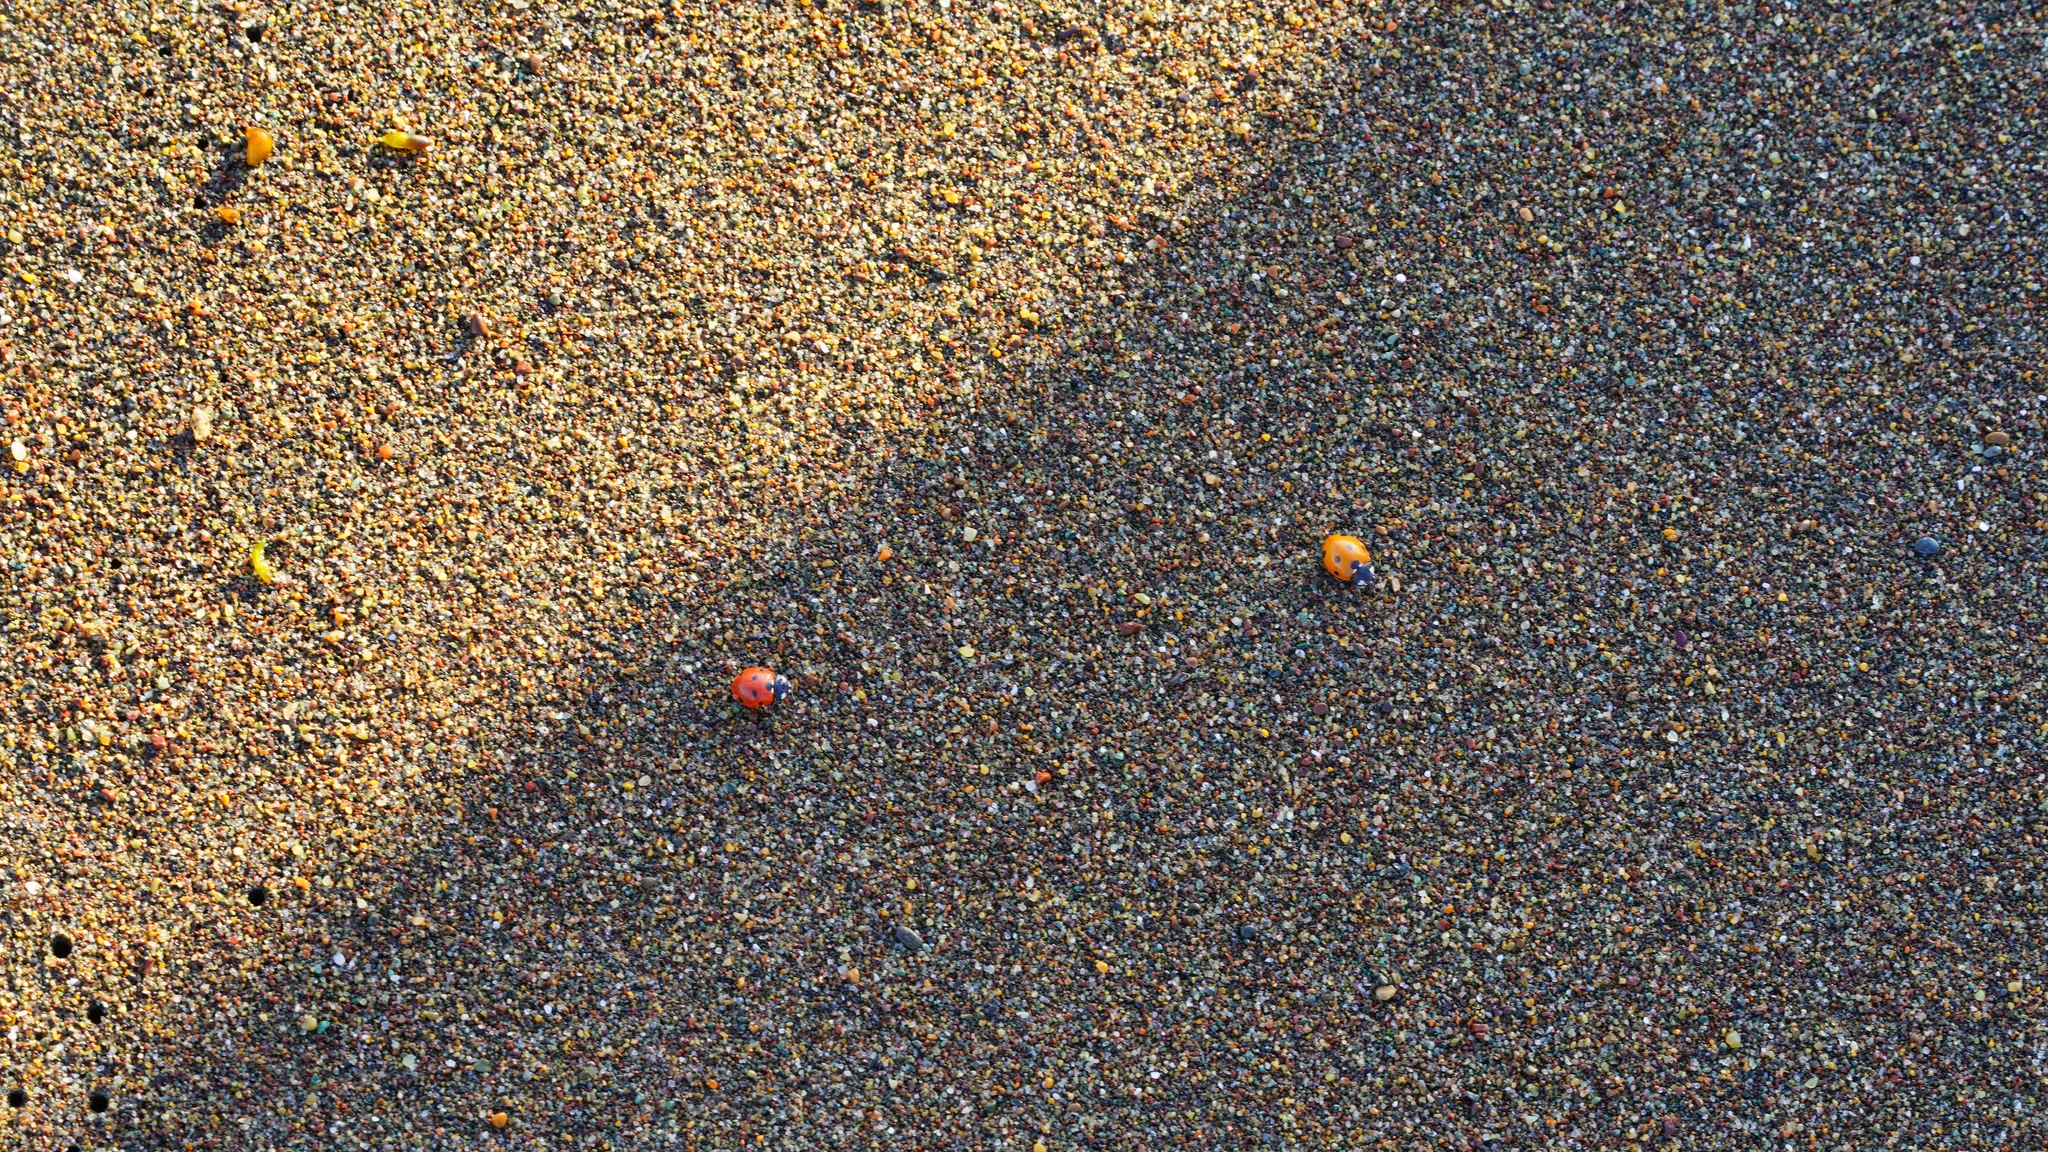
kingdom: Animalia
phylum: Arthropoda
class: Insecta
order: Coleoptera
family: Coccinellidae
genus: Coccinella
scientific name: Coccinella septempunctata
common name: Sevenspotted lady beetle
